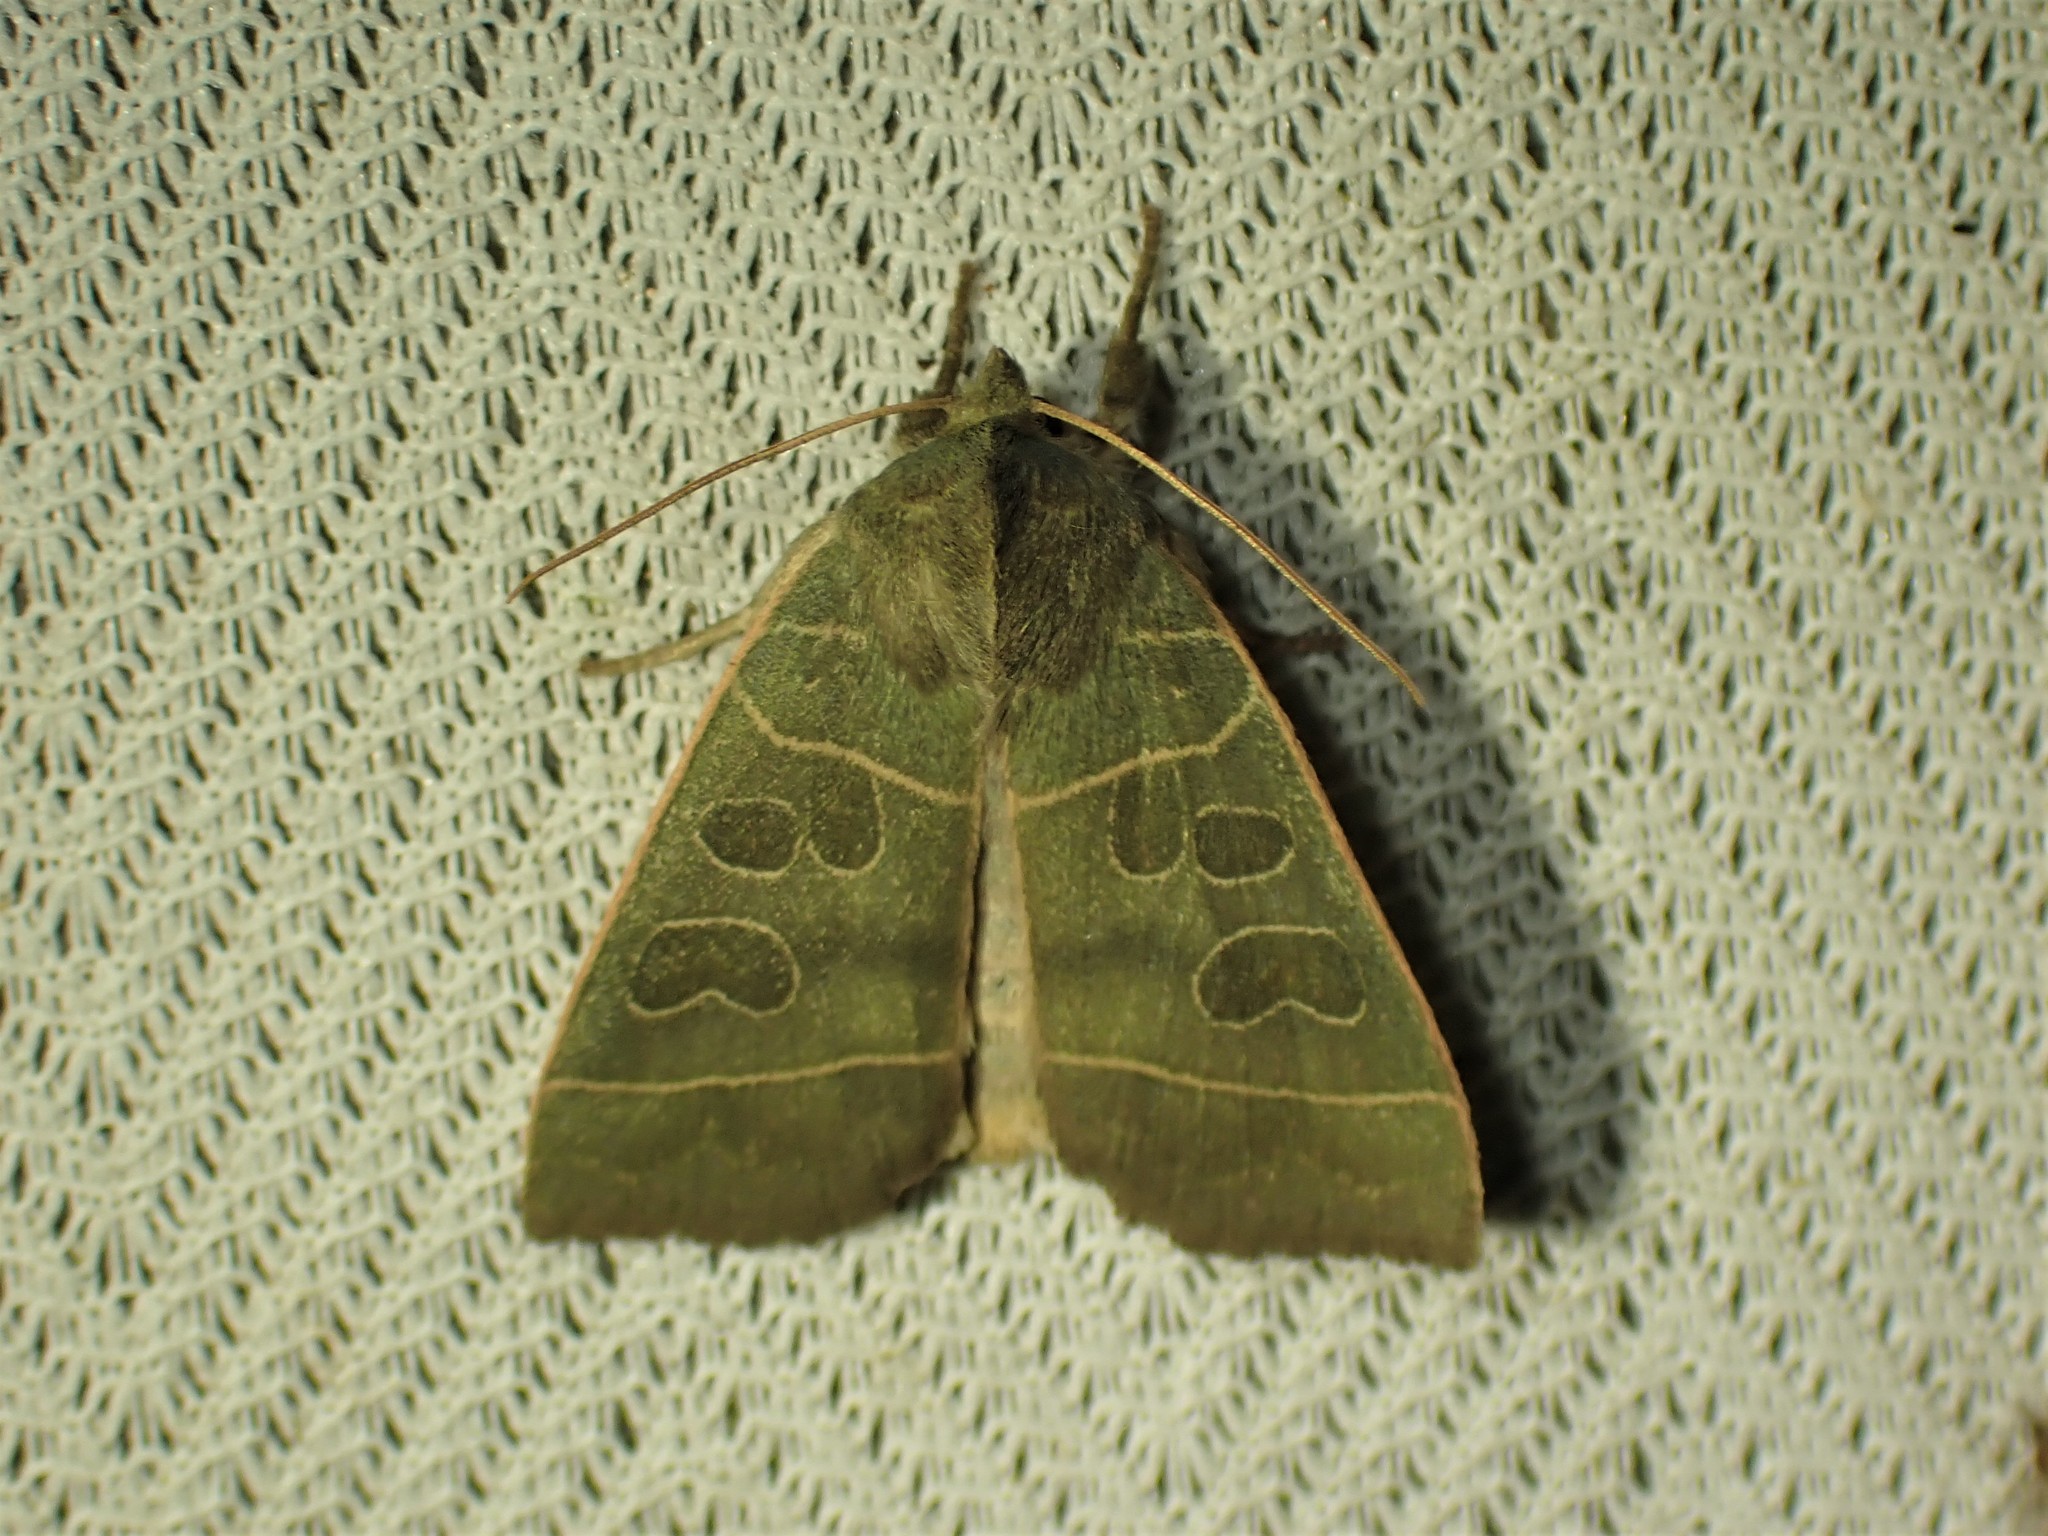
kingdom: Animalia
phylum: Arthropoda
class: Insecta
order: Lepidoptera
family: Noctuidae
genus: Ipimorpha
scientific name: Ipimorpha pleonectusa
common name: Even-lined sallow
